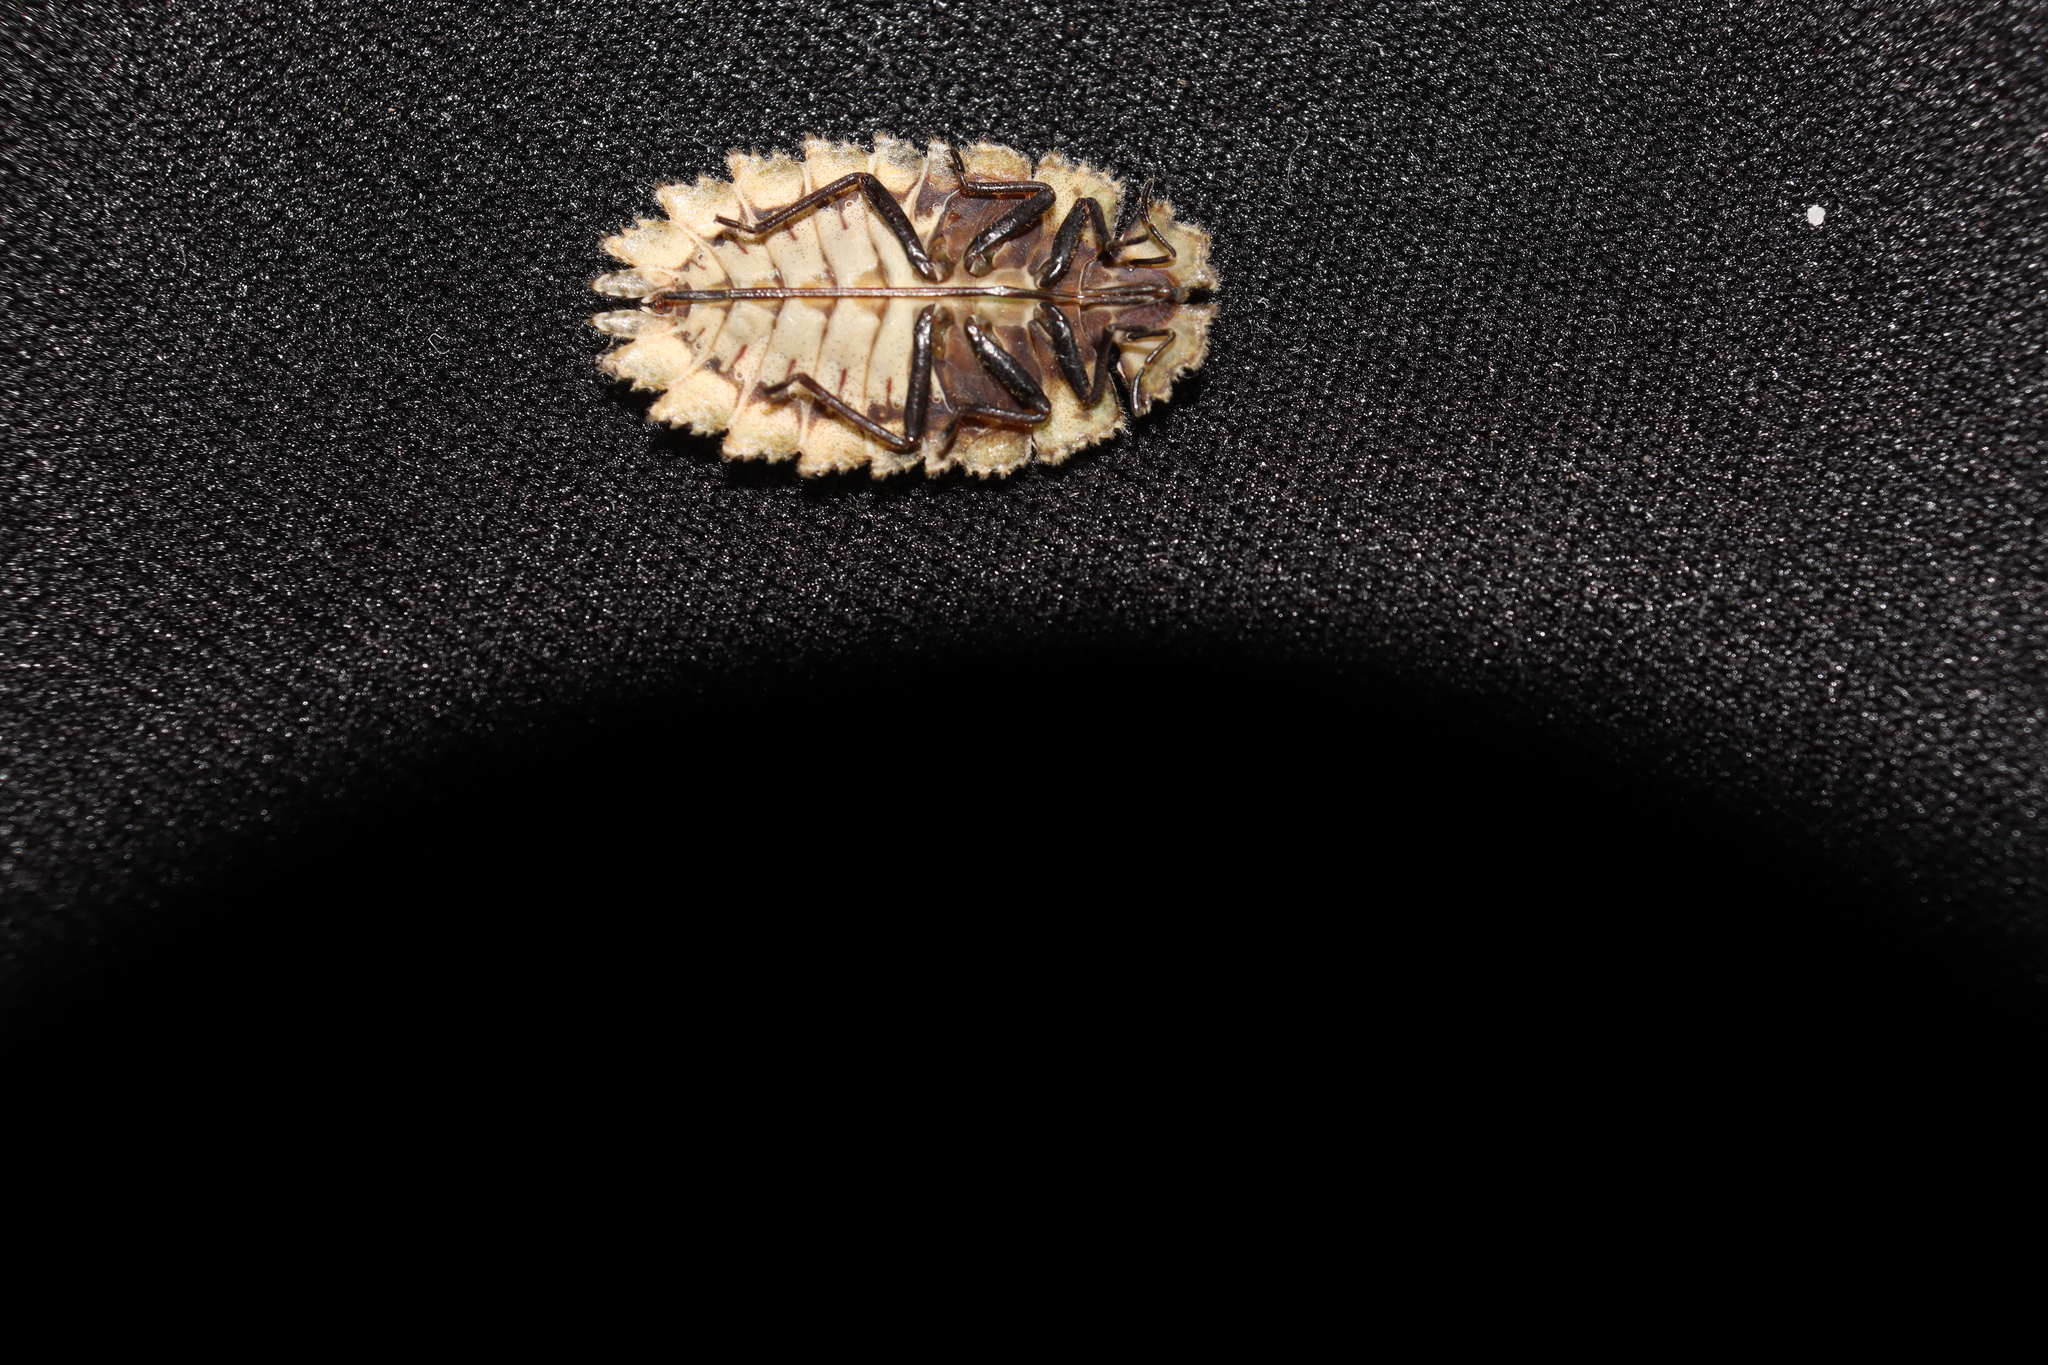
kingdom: Animalia
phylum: Arthropoda
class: Insecta
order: Hemiptera
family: Phloeidae
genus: Phloeophana
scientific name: Phloeophana longirostris
